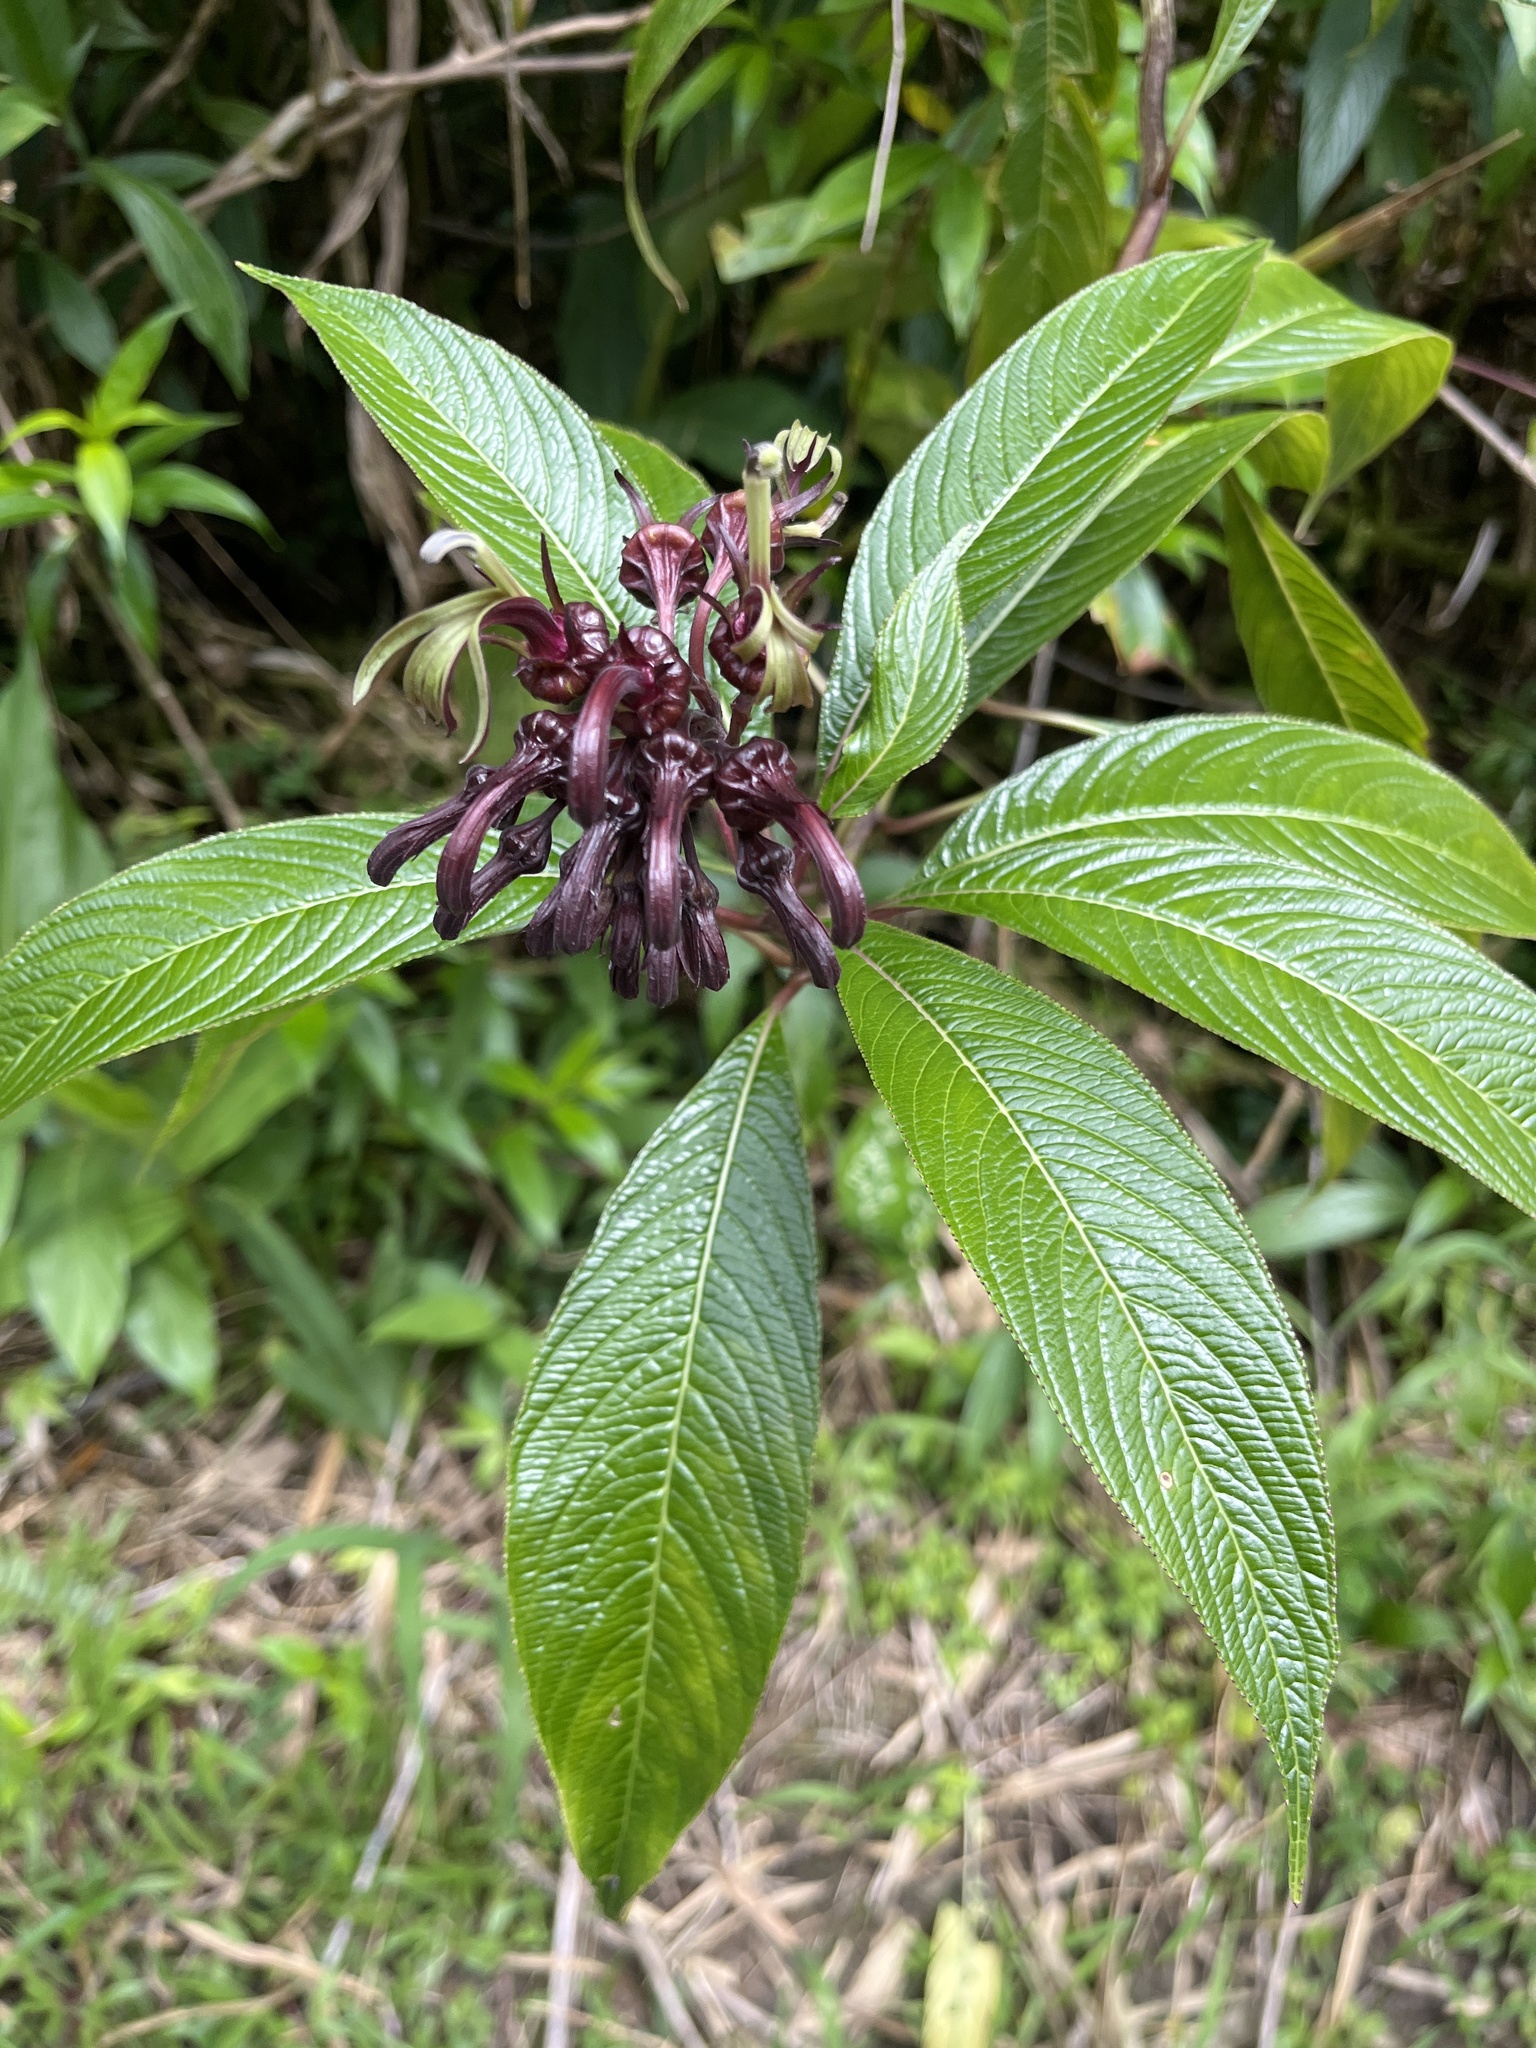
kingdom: Plantae
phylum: Tracheophyta
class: Magnoliopsida
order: Asterales
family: Campanulaceae
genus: Lobelia
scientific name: Lobelia portoricensis
